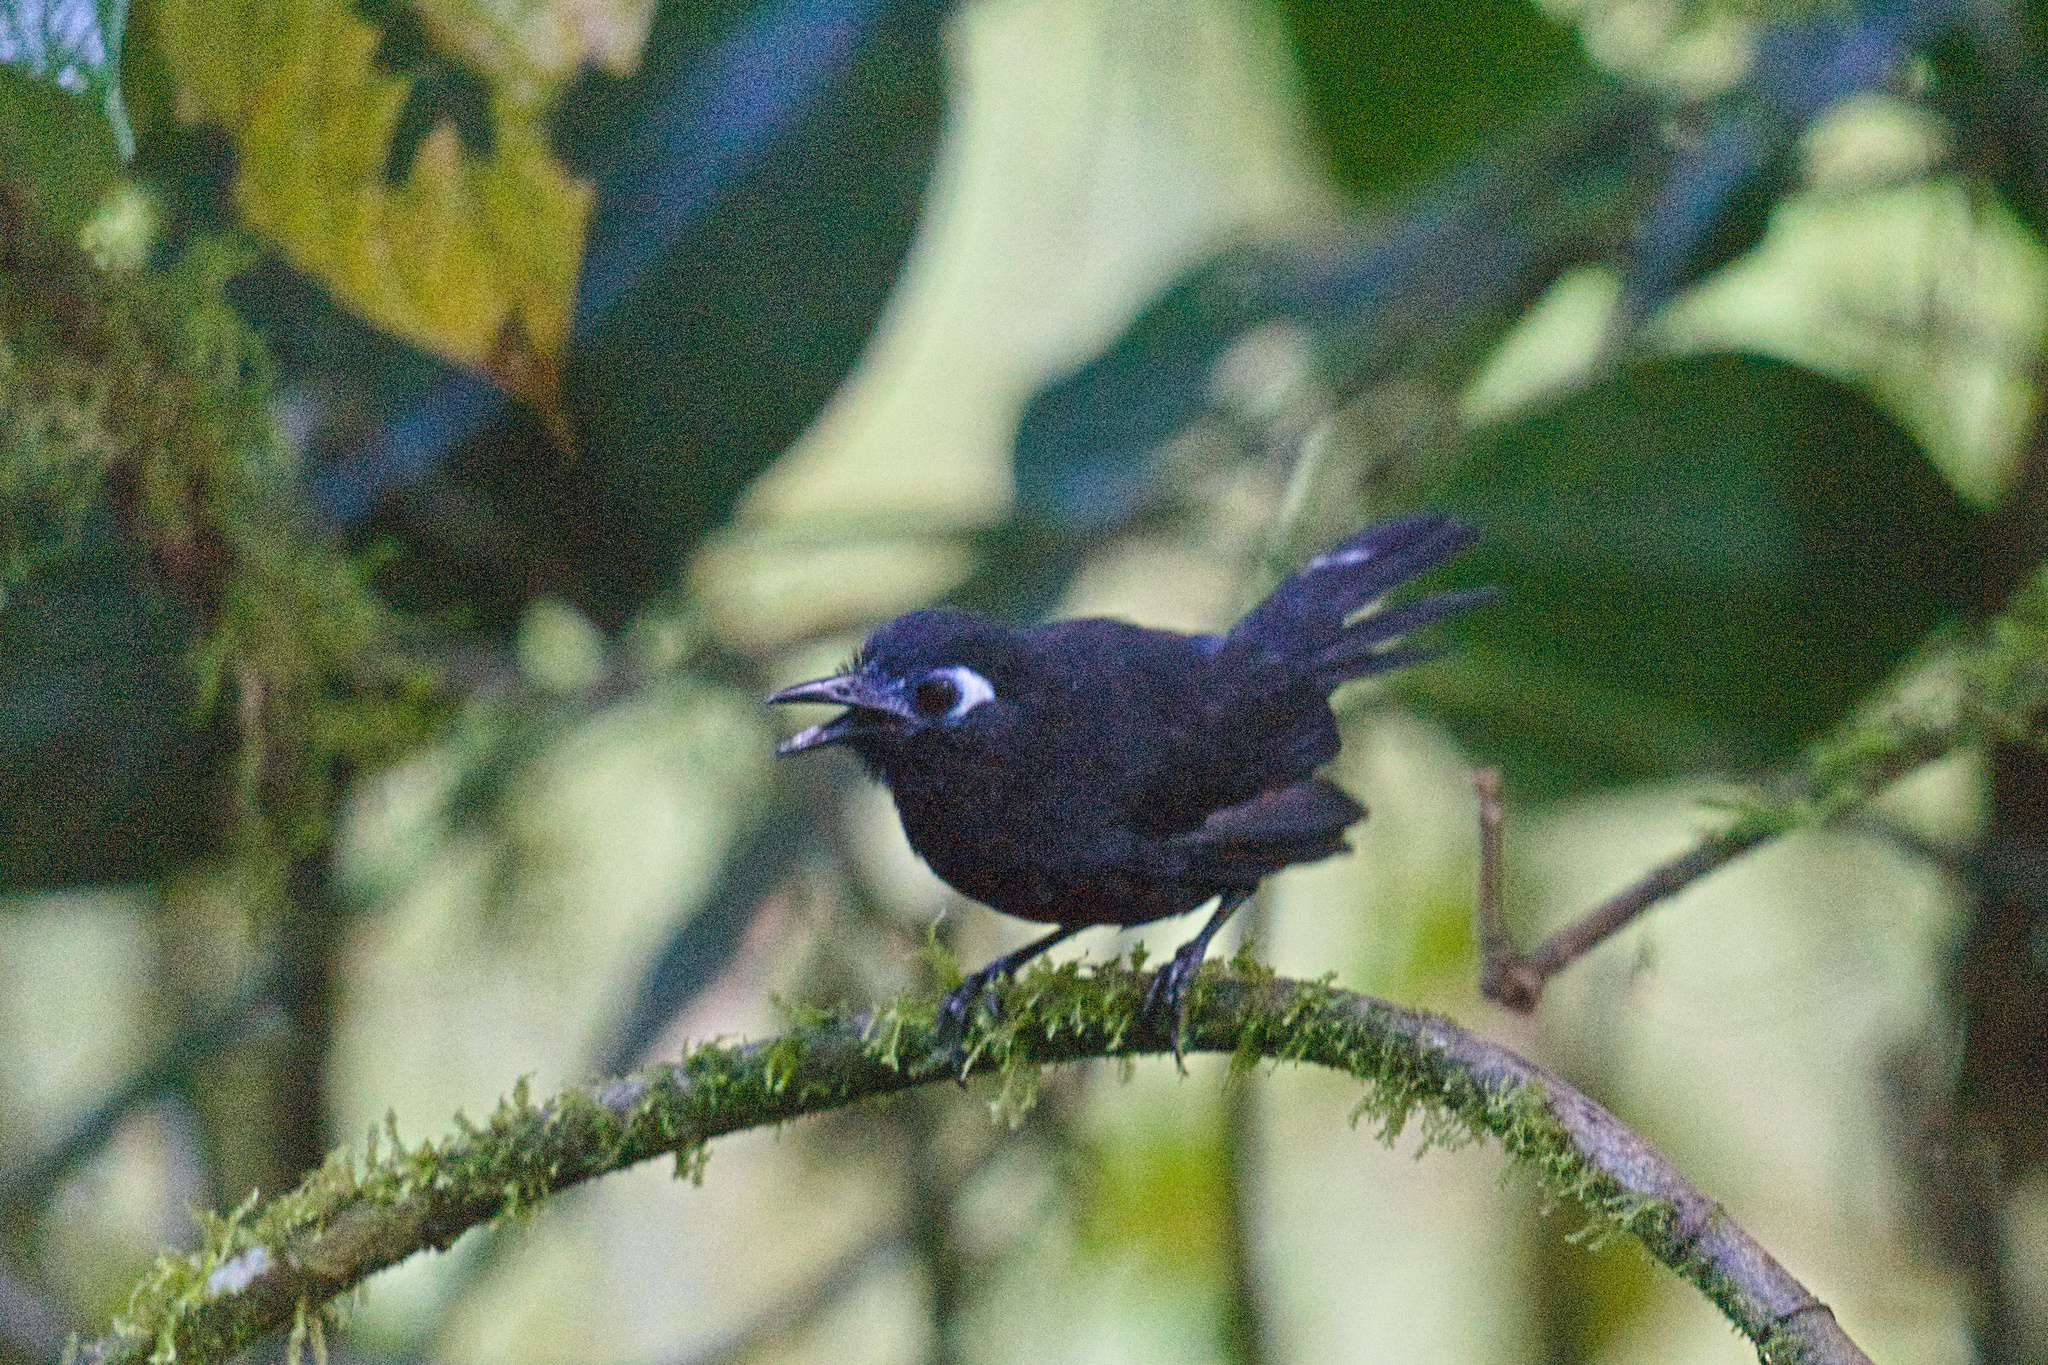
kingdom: Animalia
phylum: Chordata
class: Aves
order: Passeriformes
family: Thamnophilidae
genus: Hafferia
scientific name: Hafferia zeledoni
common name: Zeledon's antbird
